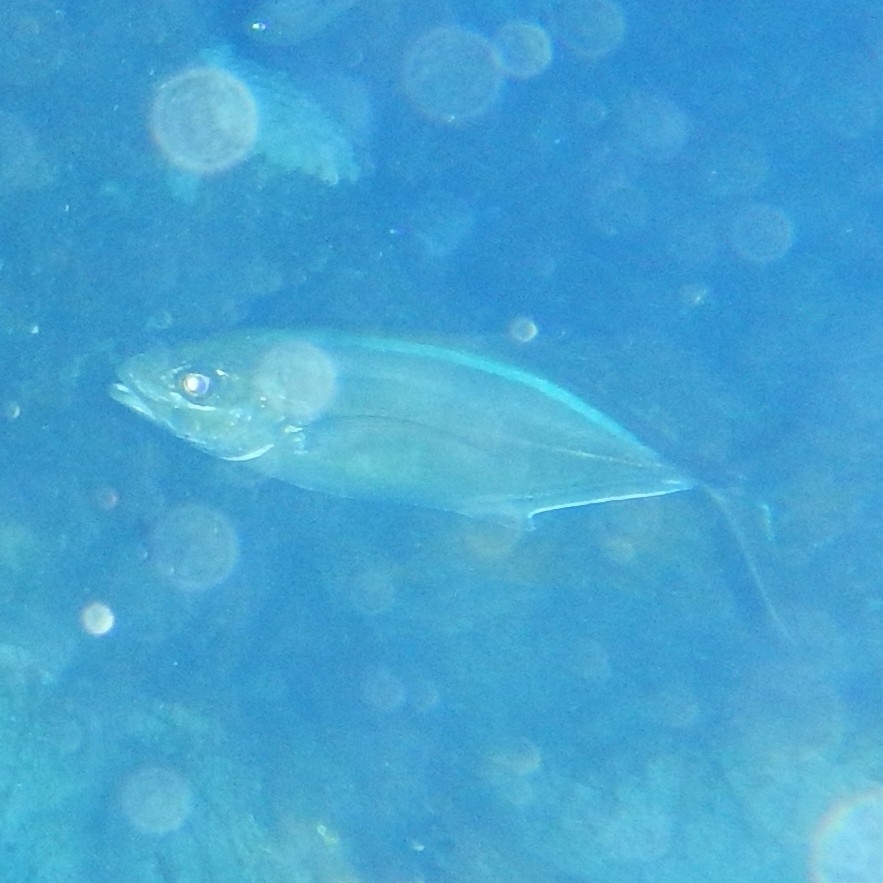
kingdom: Animalia
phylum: Chordata
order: Perciformes
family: Carangidae
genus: Caranx
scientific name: Caranx ruber
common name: Bar jack
